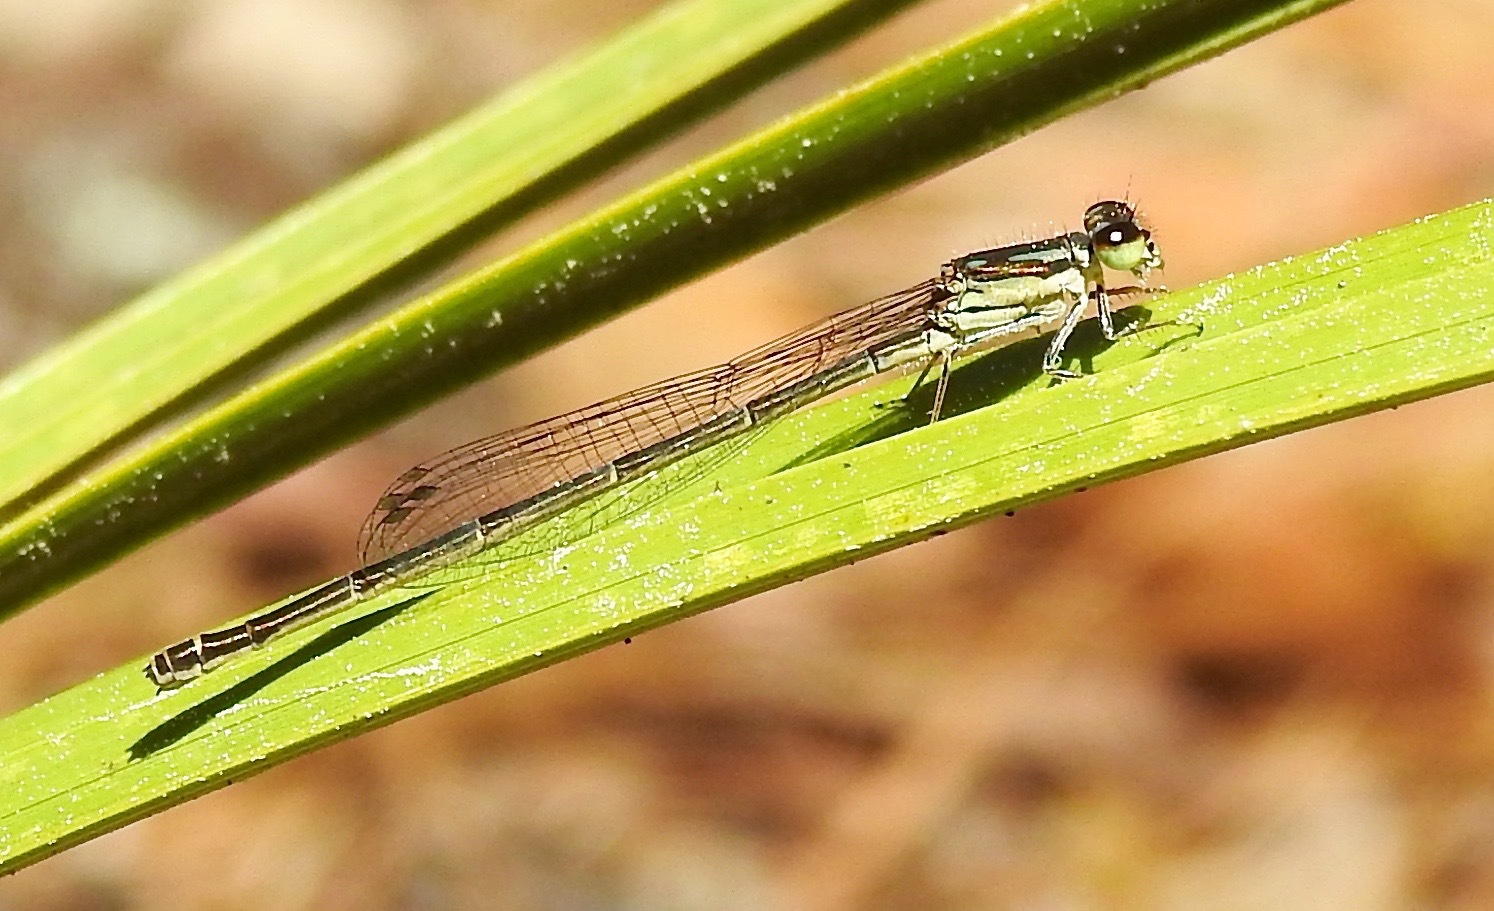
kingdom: Animalia
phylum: Arthropoda
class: Insecta
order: Odonata
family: Coenagrionidae
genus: Ischnura
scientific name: Ischnura posita
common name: Fragile forktail
